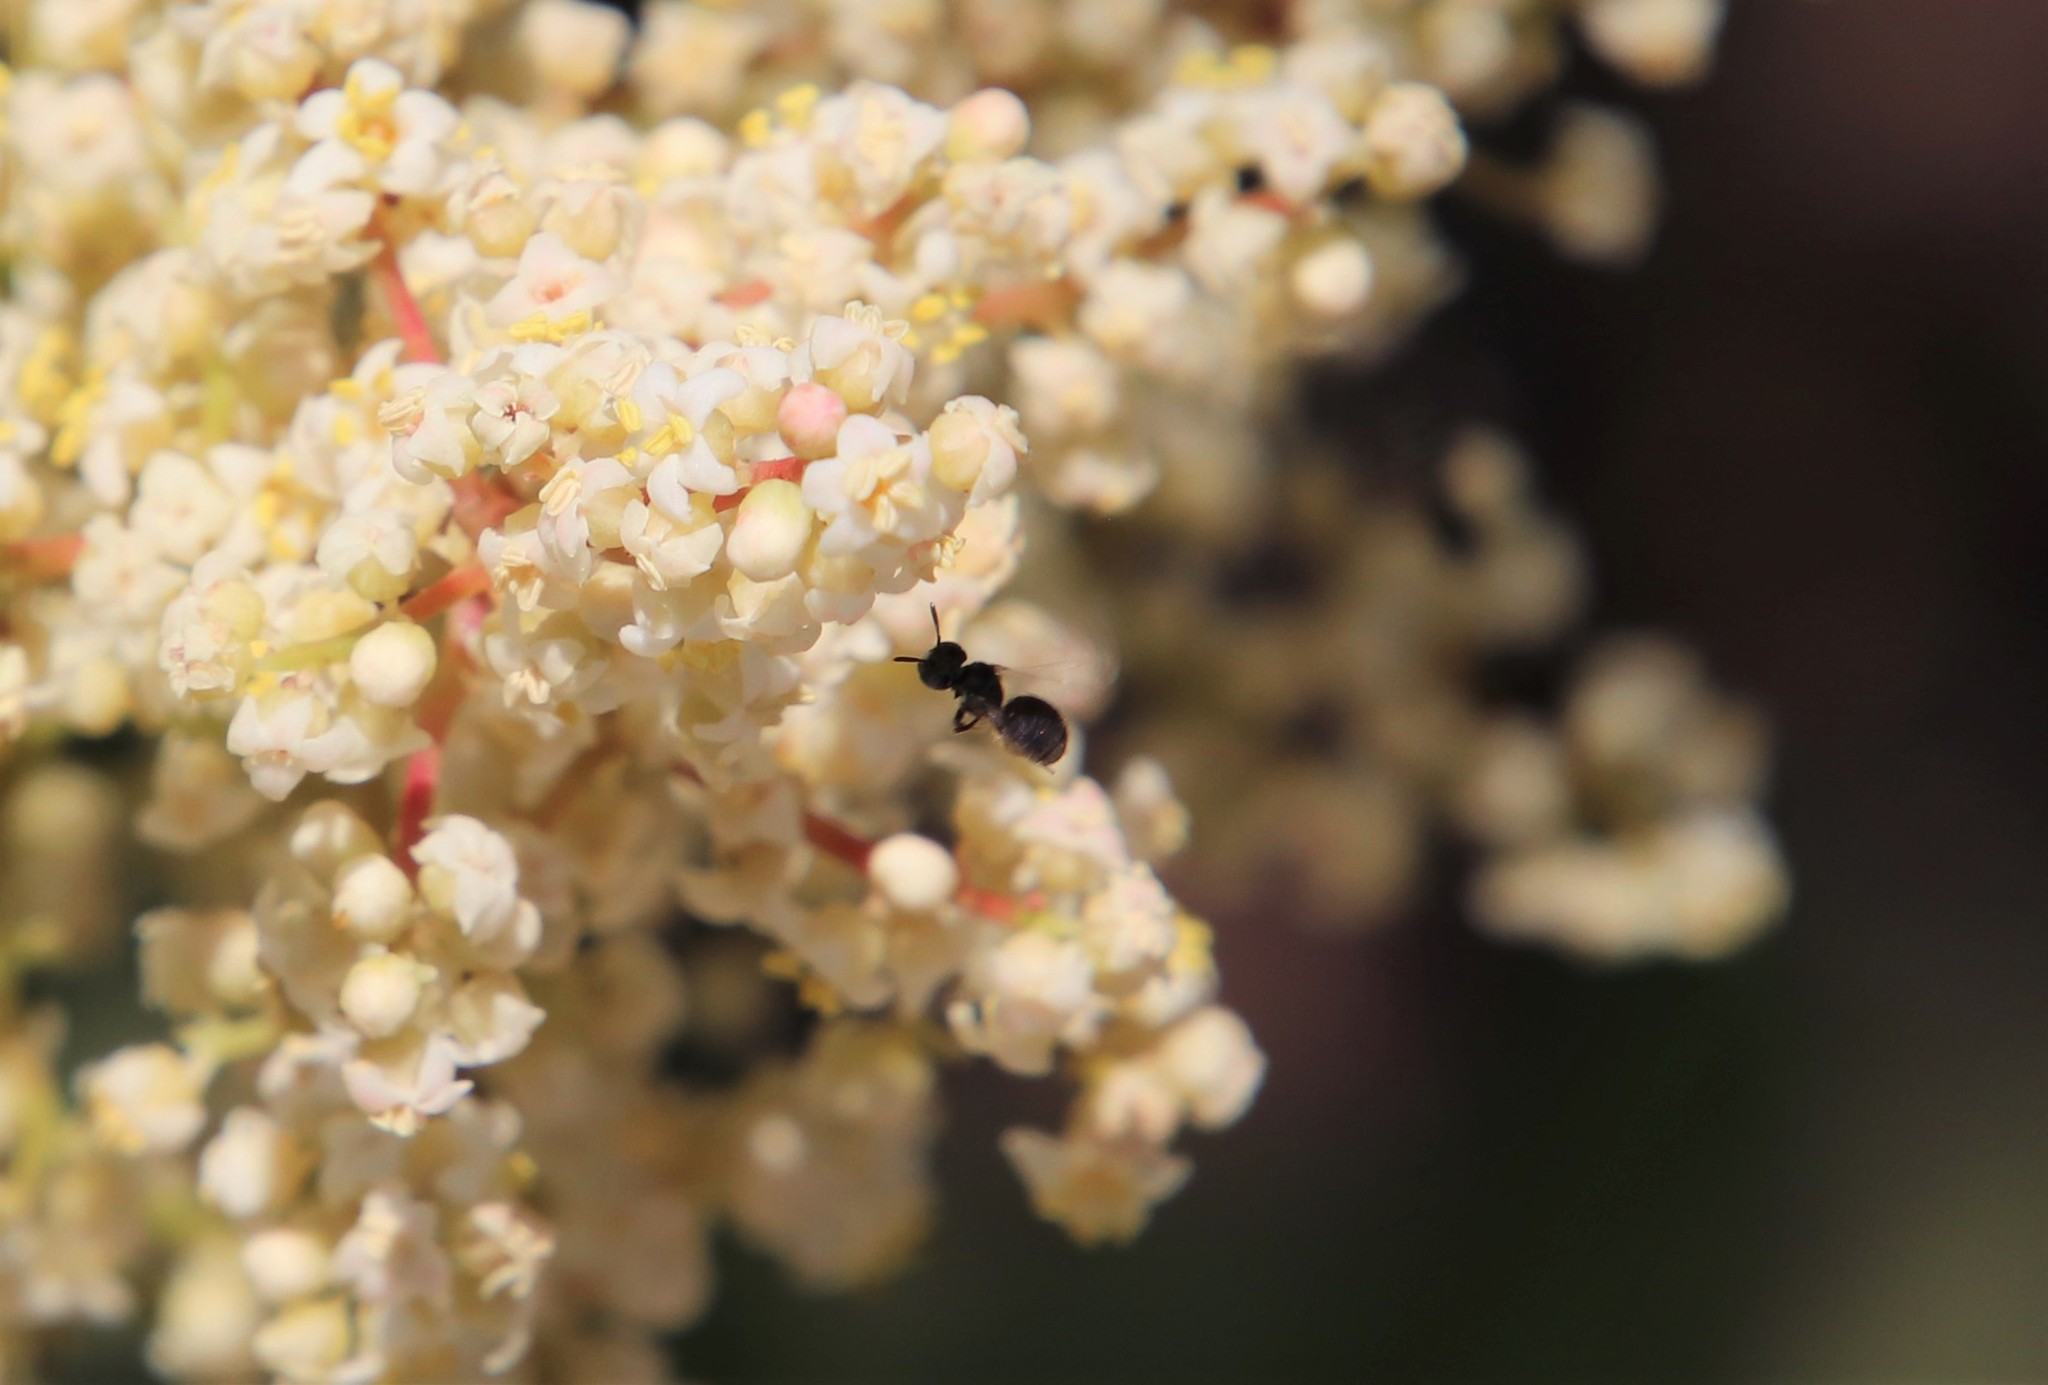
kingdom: Animalia
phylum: Arthropoda
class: Insecta
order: Hymenoptera
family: Apidae
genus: Ceratina
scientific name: Ceratina arizonensis
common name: Arizona small carpenter bee
